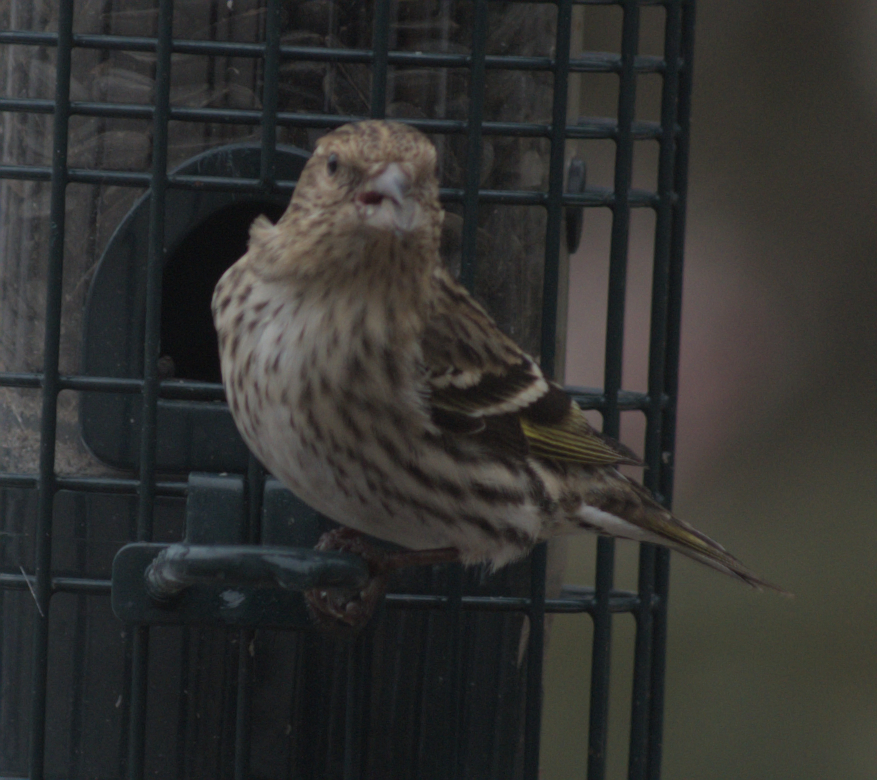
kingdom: Animalia
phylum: Chordata
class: Aves
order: Passeriformes
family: Fringillidae
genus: Spinus
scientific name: Spinus pinus
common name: Pine siskin
